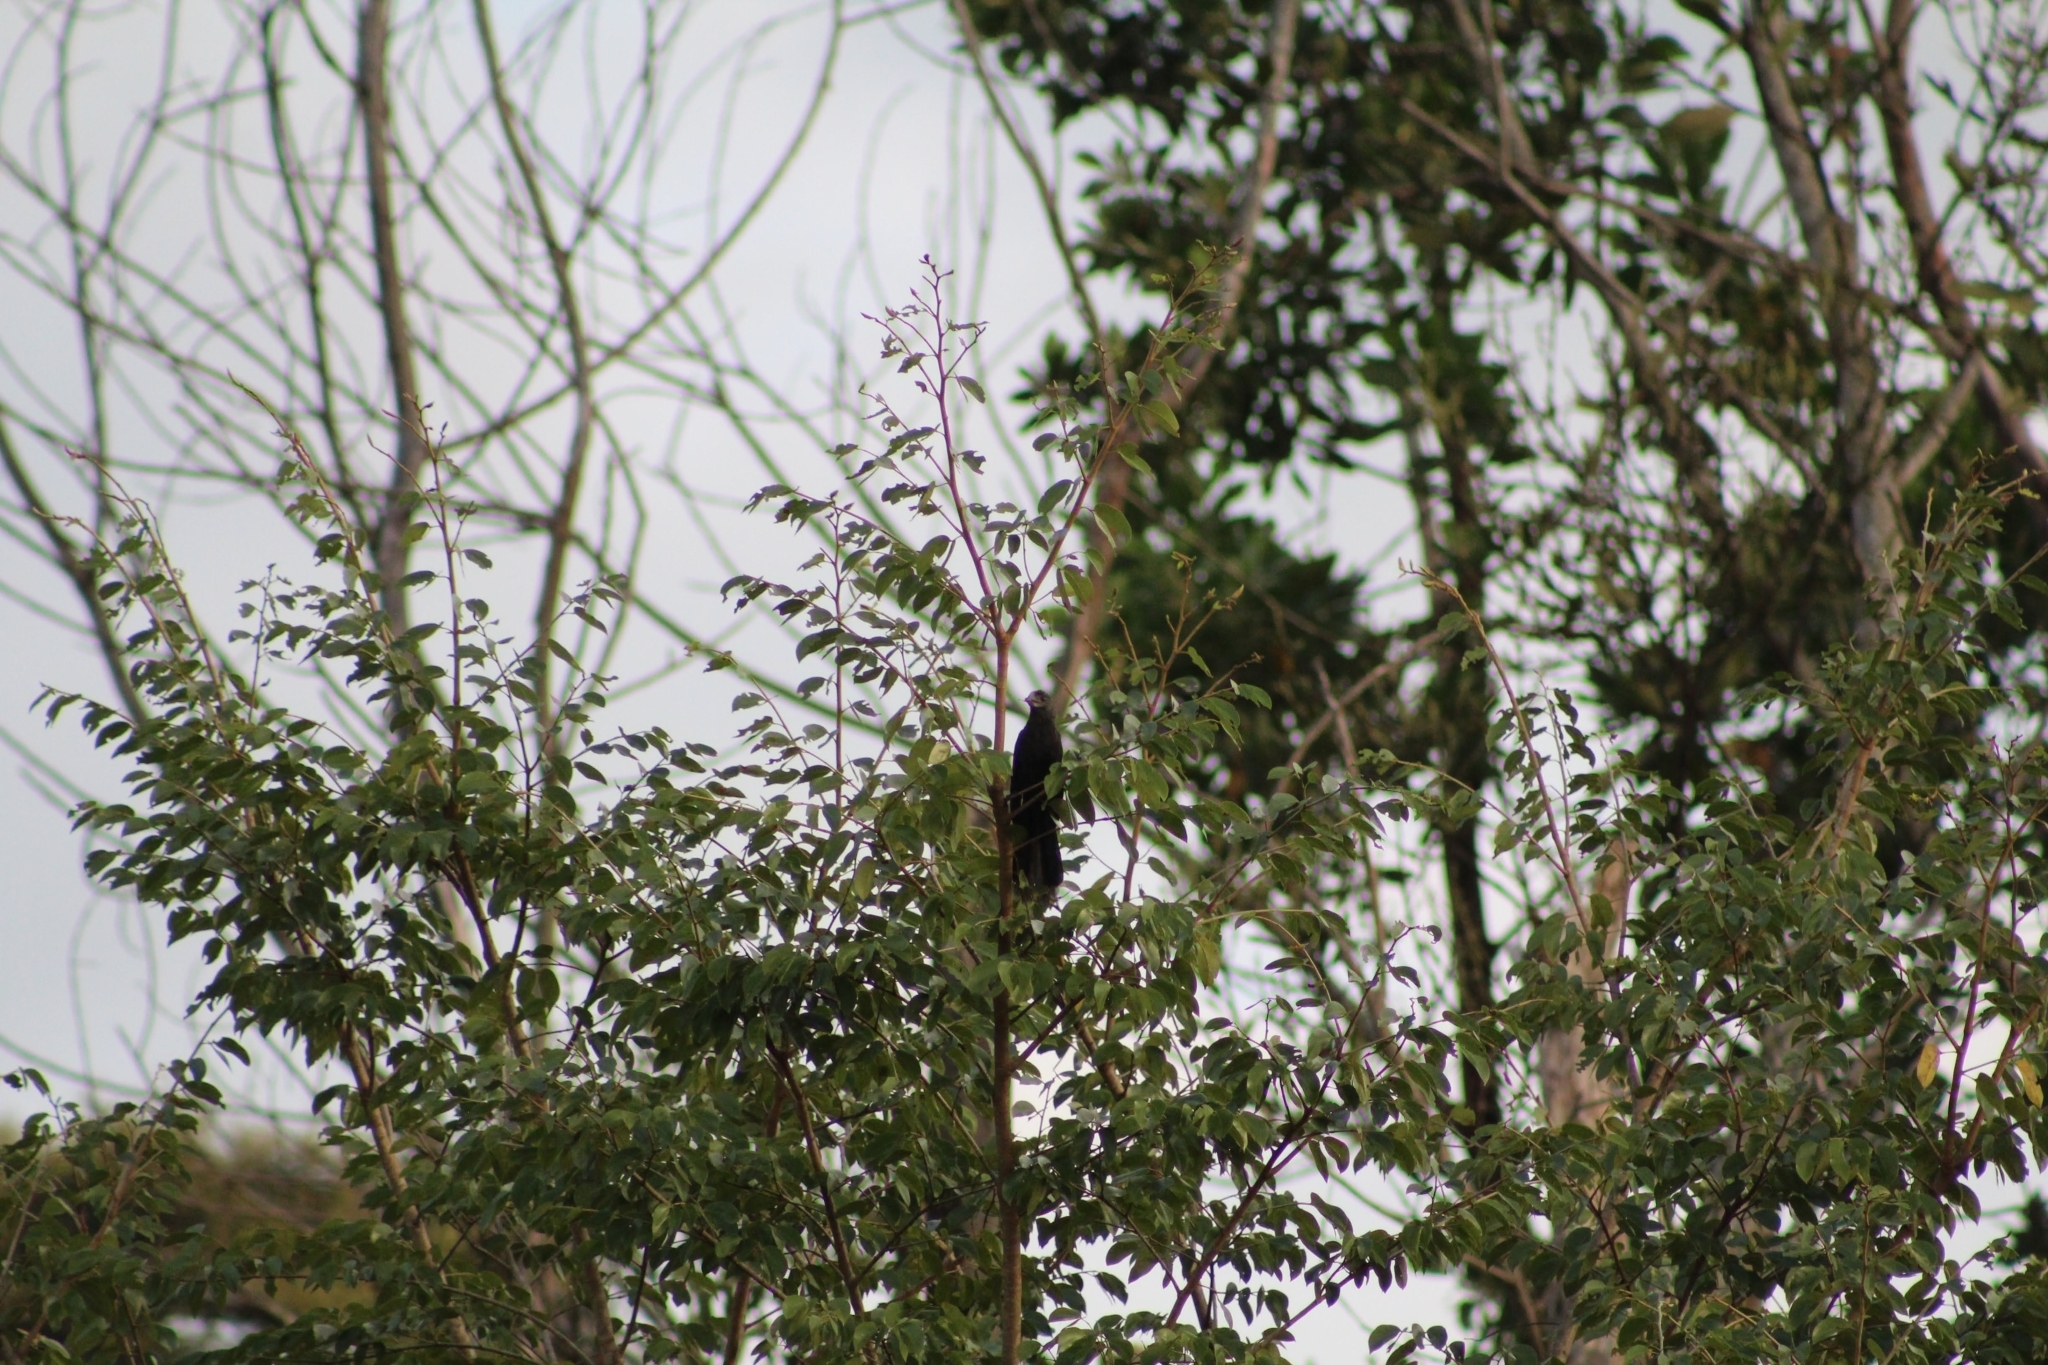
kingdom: Animalia
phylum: Chordata
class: Aves
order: Cuculiformes
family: Cuculidae
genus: Crotophaga
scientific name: Crotophaga sulcirostris
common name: Groove-billed ani
